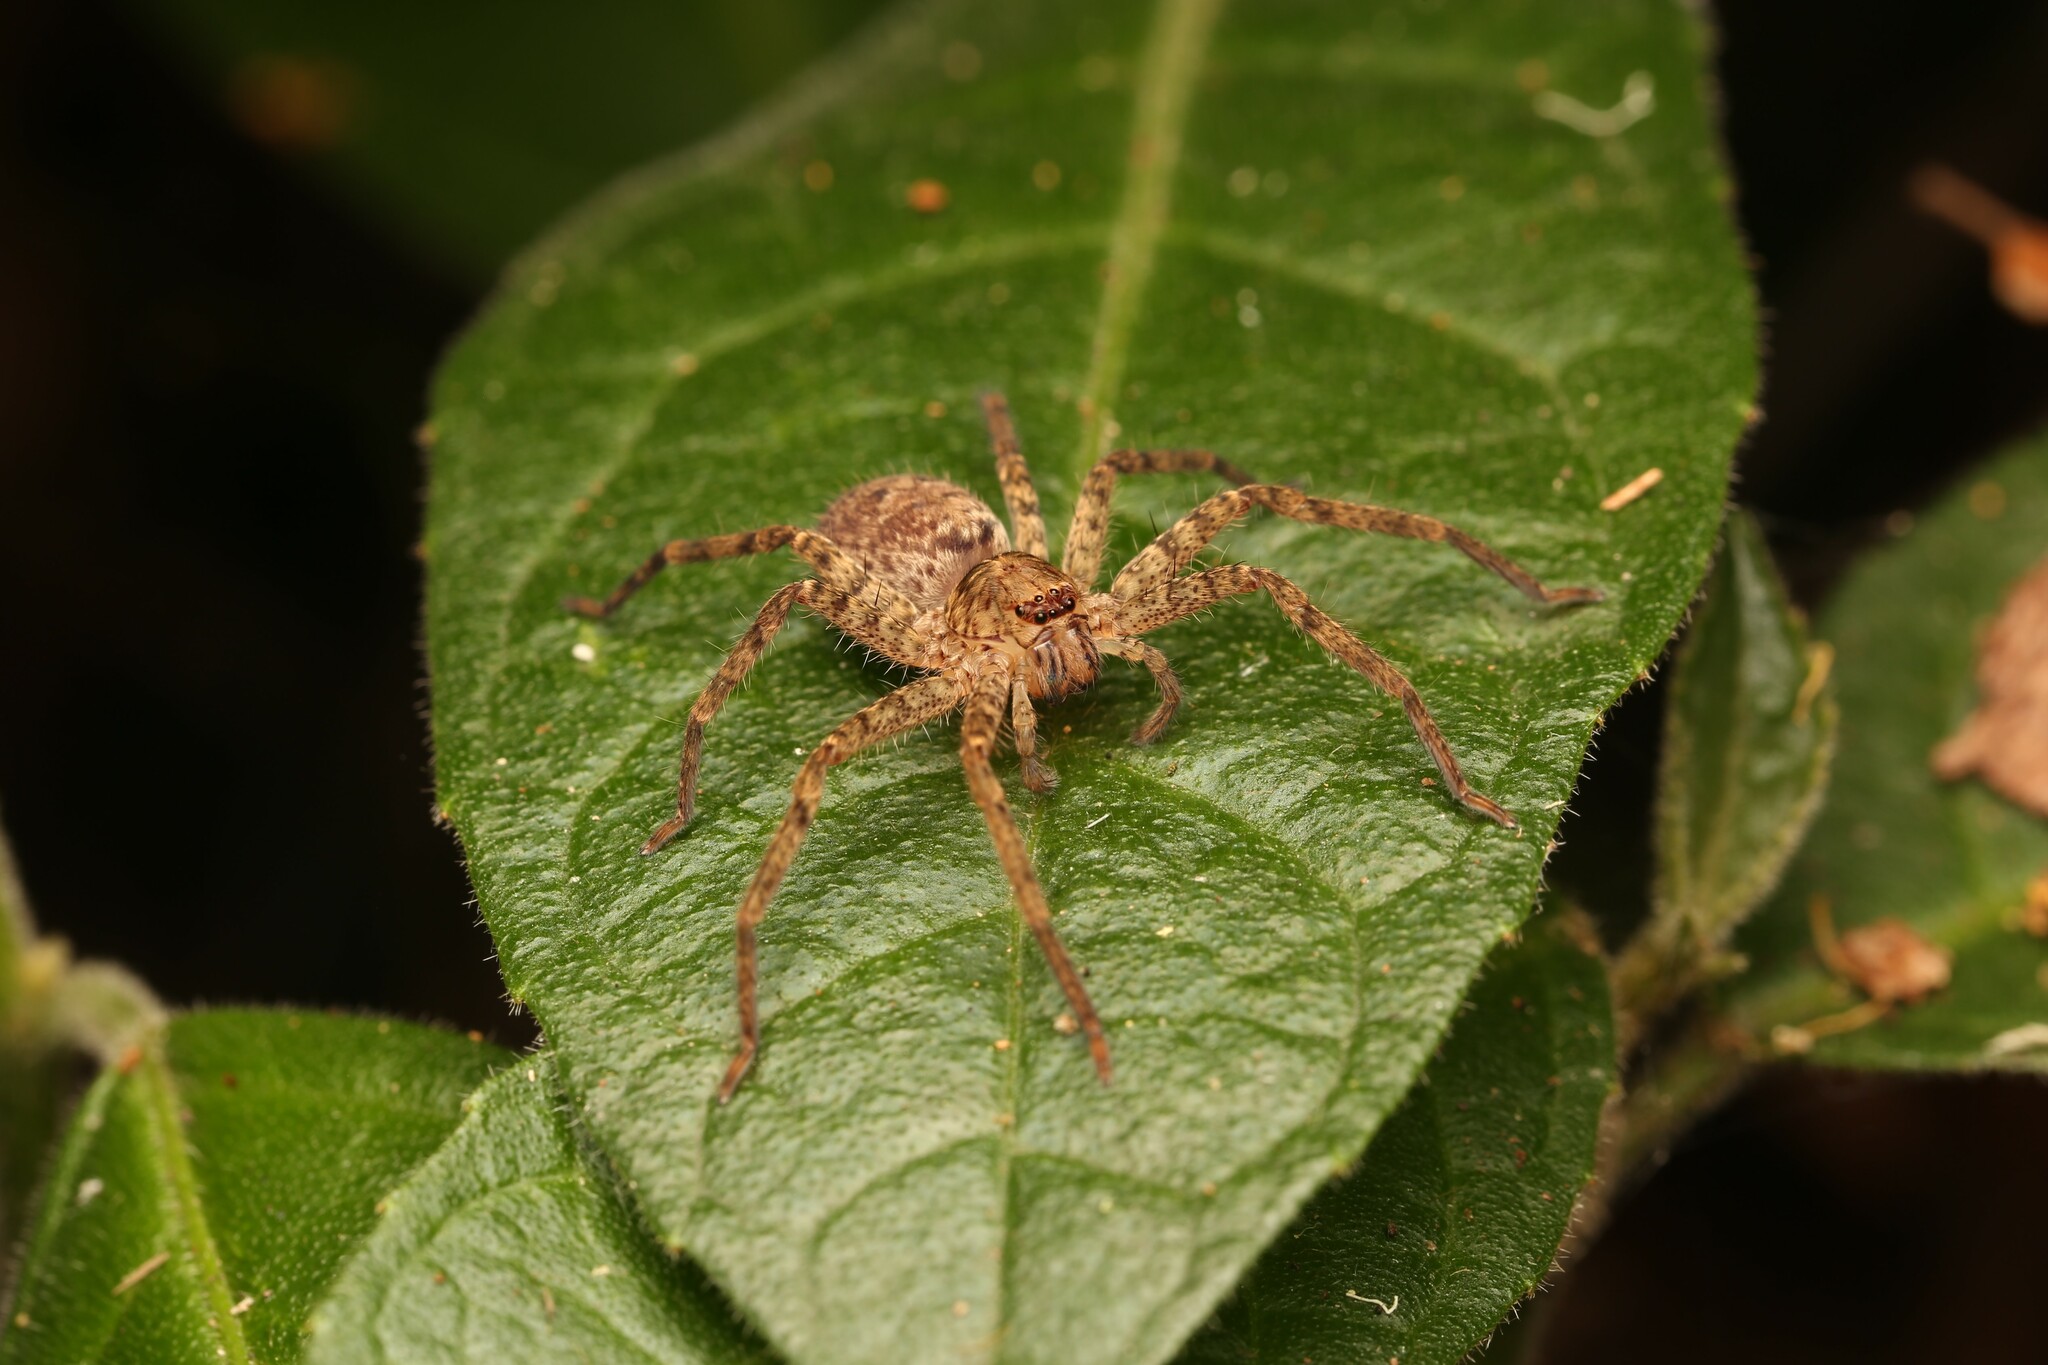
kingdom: Animalia
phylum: Arthropoda
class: Arachnida
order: Araneae
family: Sparassidae
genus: Heteropoda
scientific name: Heteropoda jugulans
